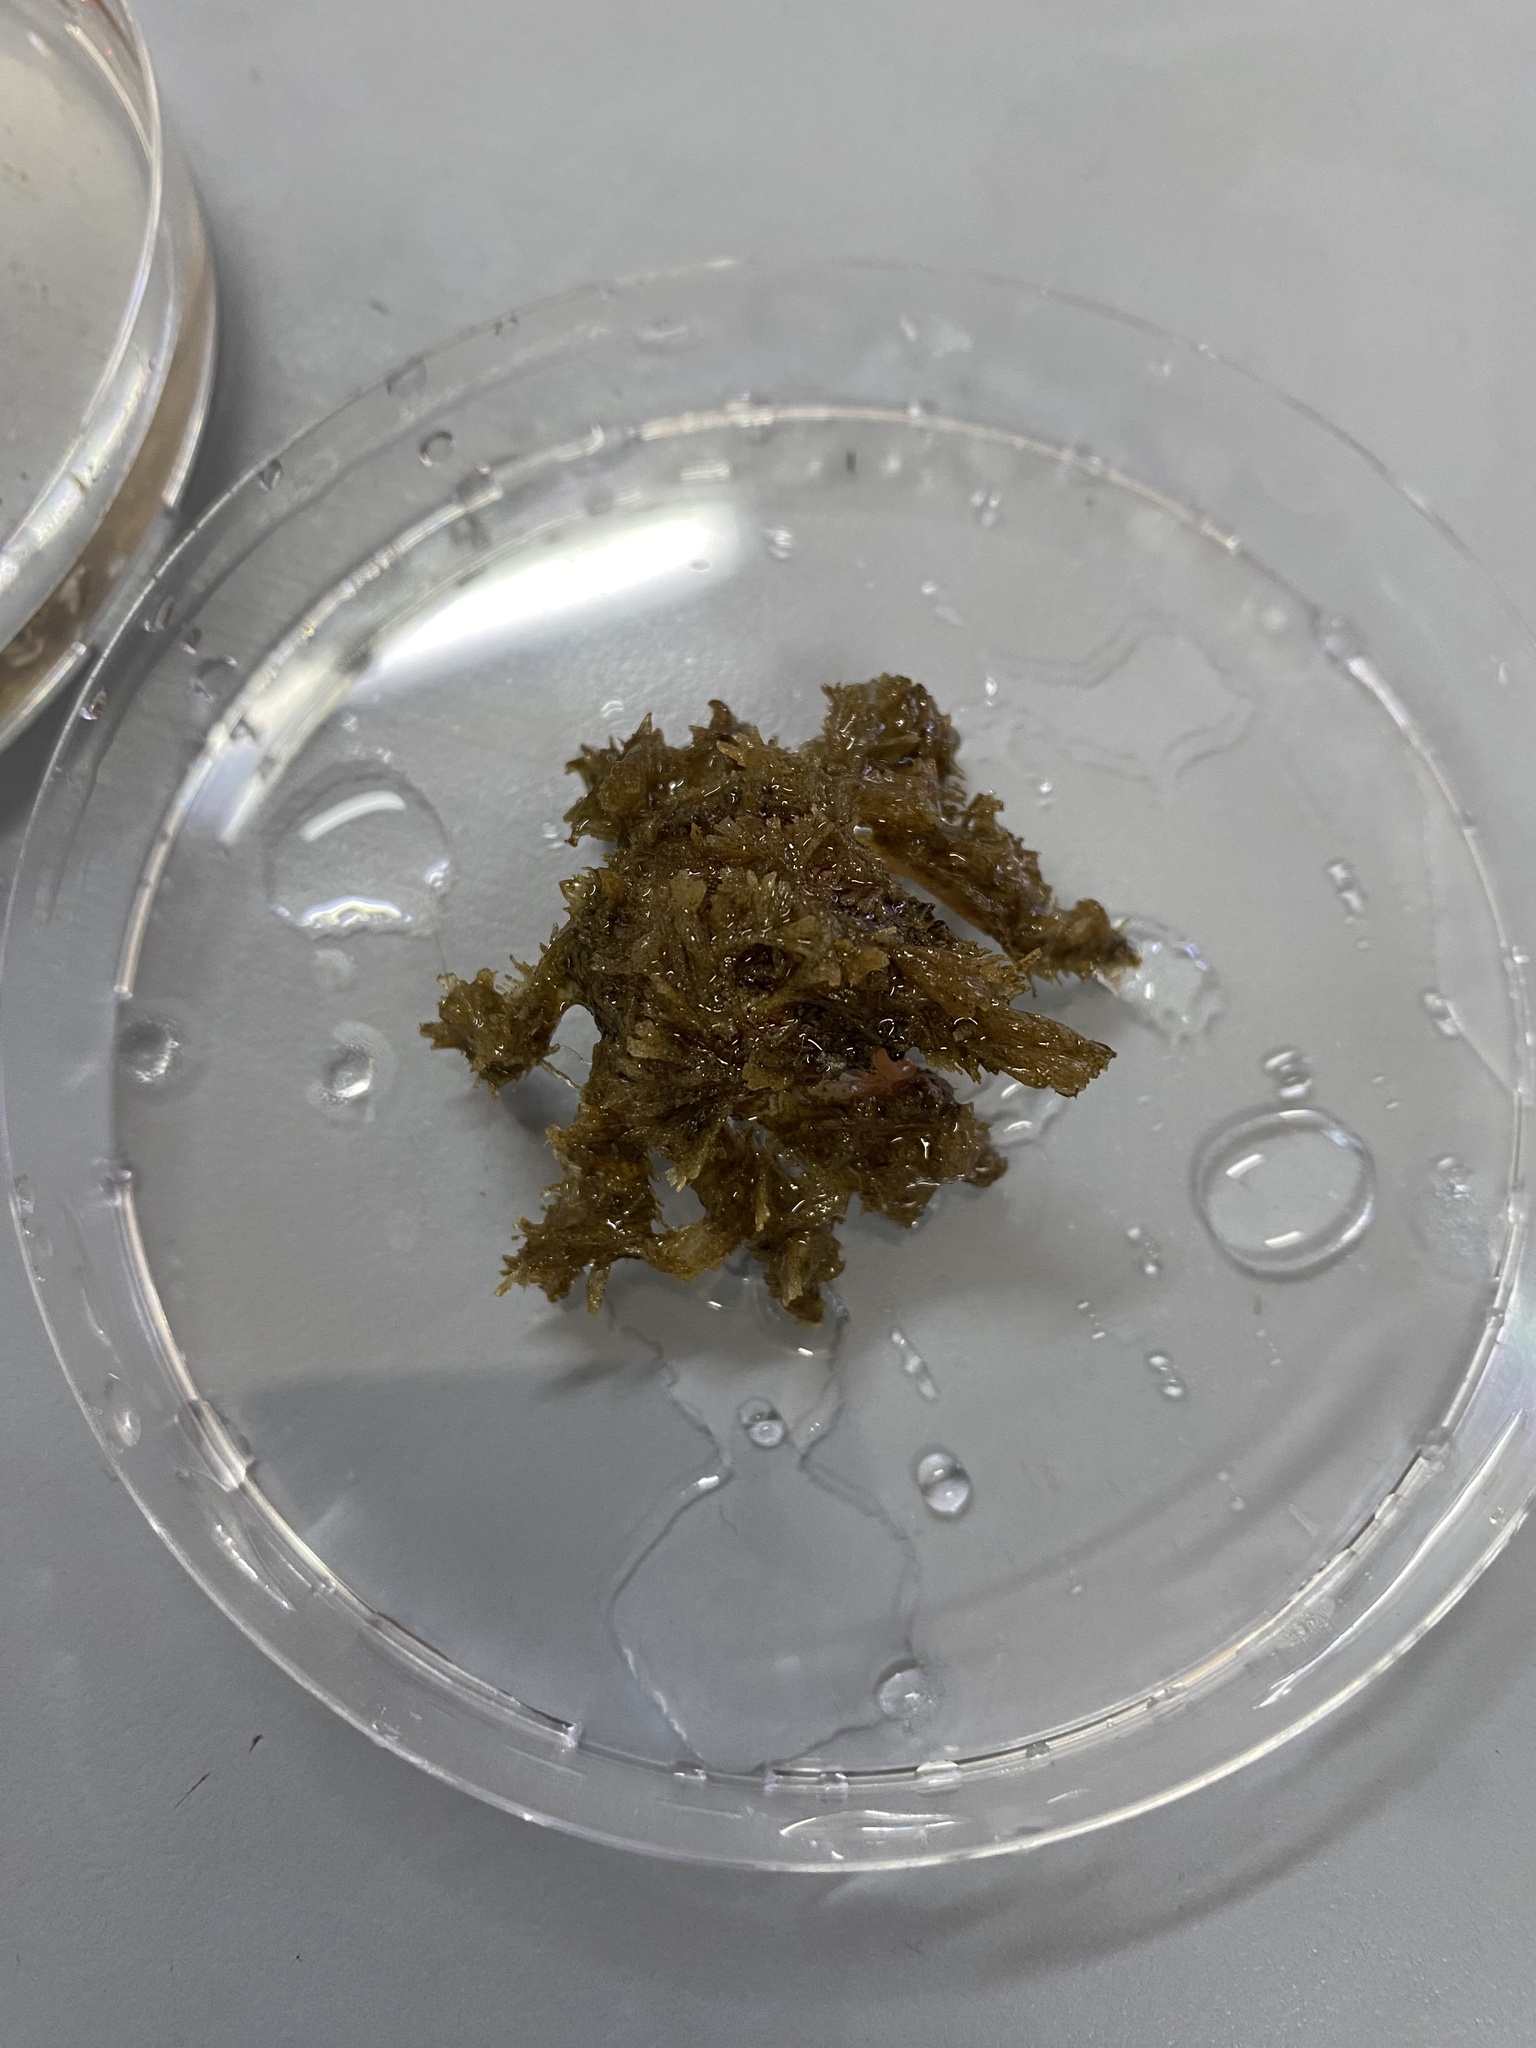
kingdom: Animalia
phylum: Arthropoda
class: Malacostraca
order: Decapoda
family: Epialtidae
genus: Pisoides
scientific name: Pisoides edwardsii
